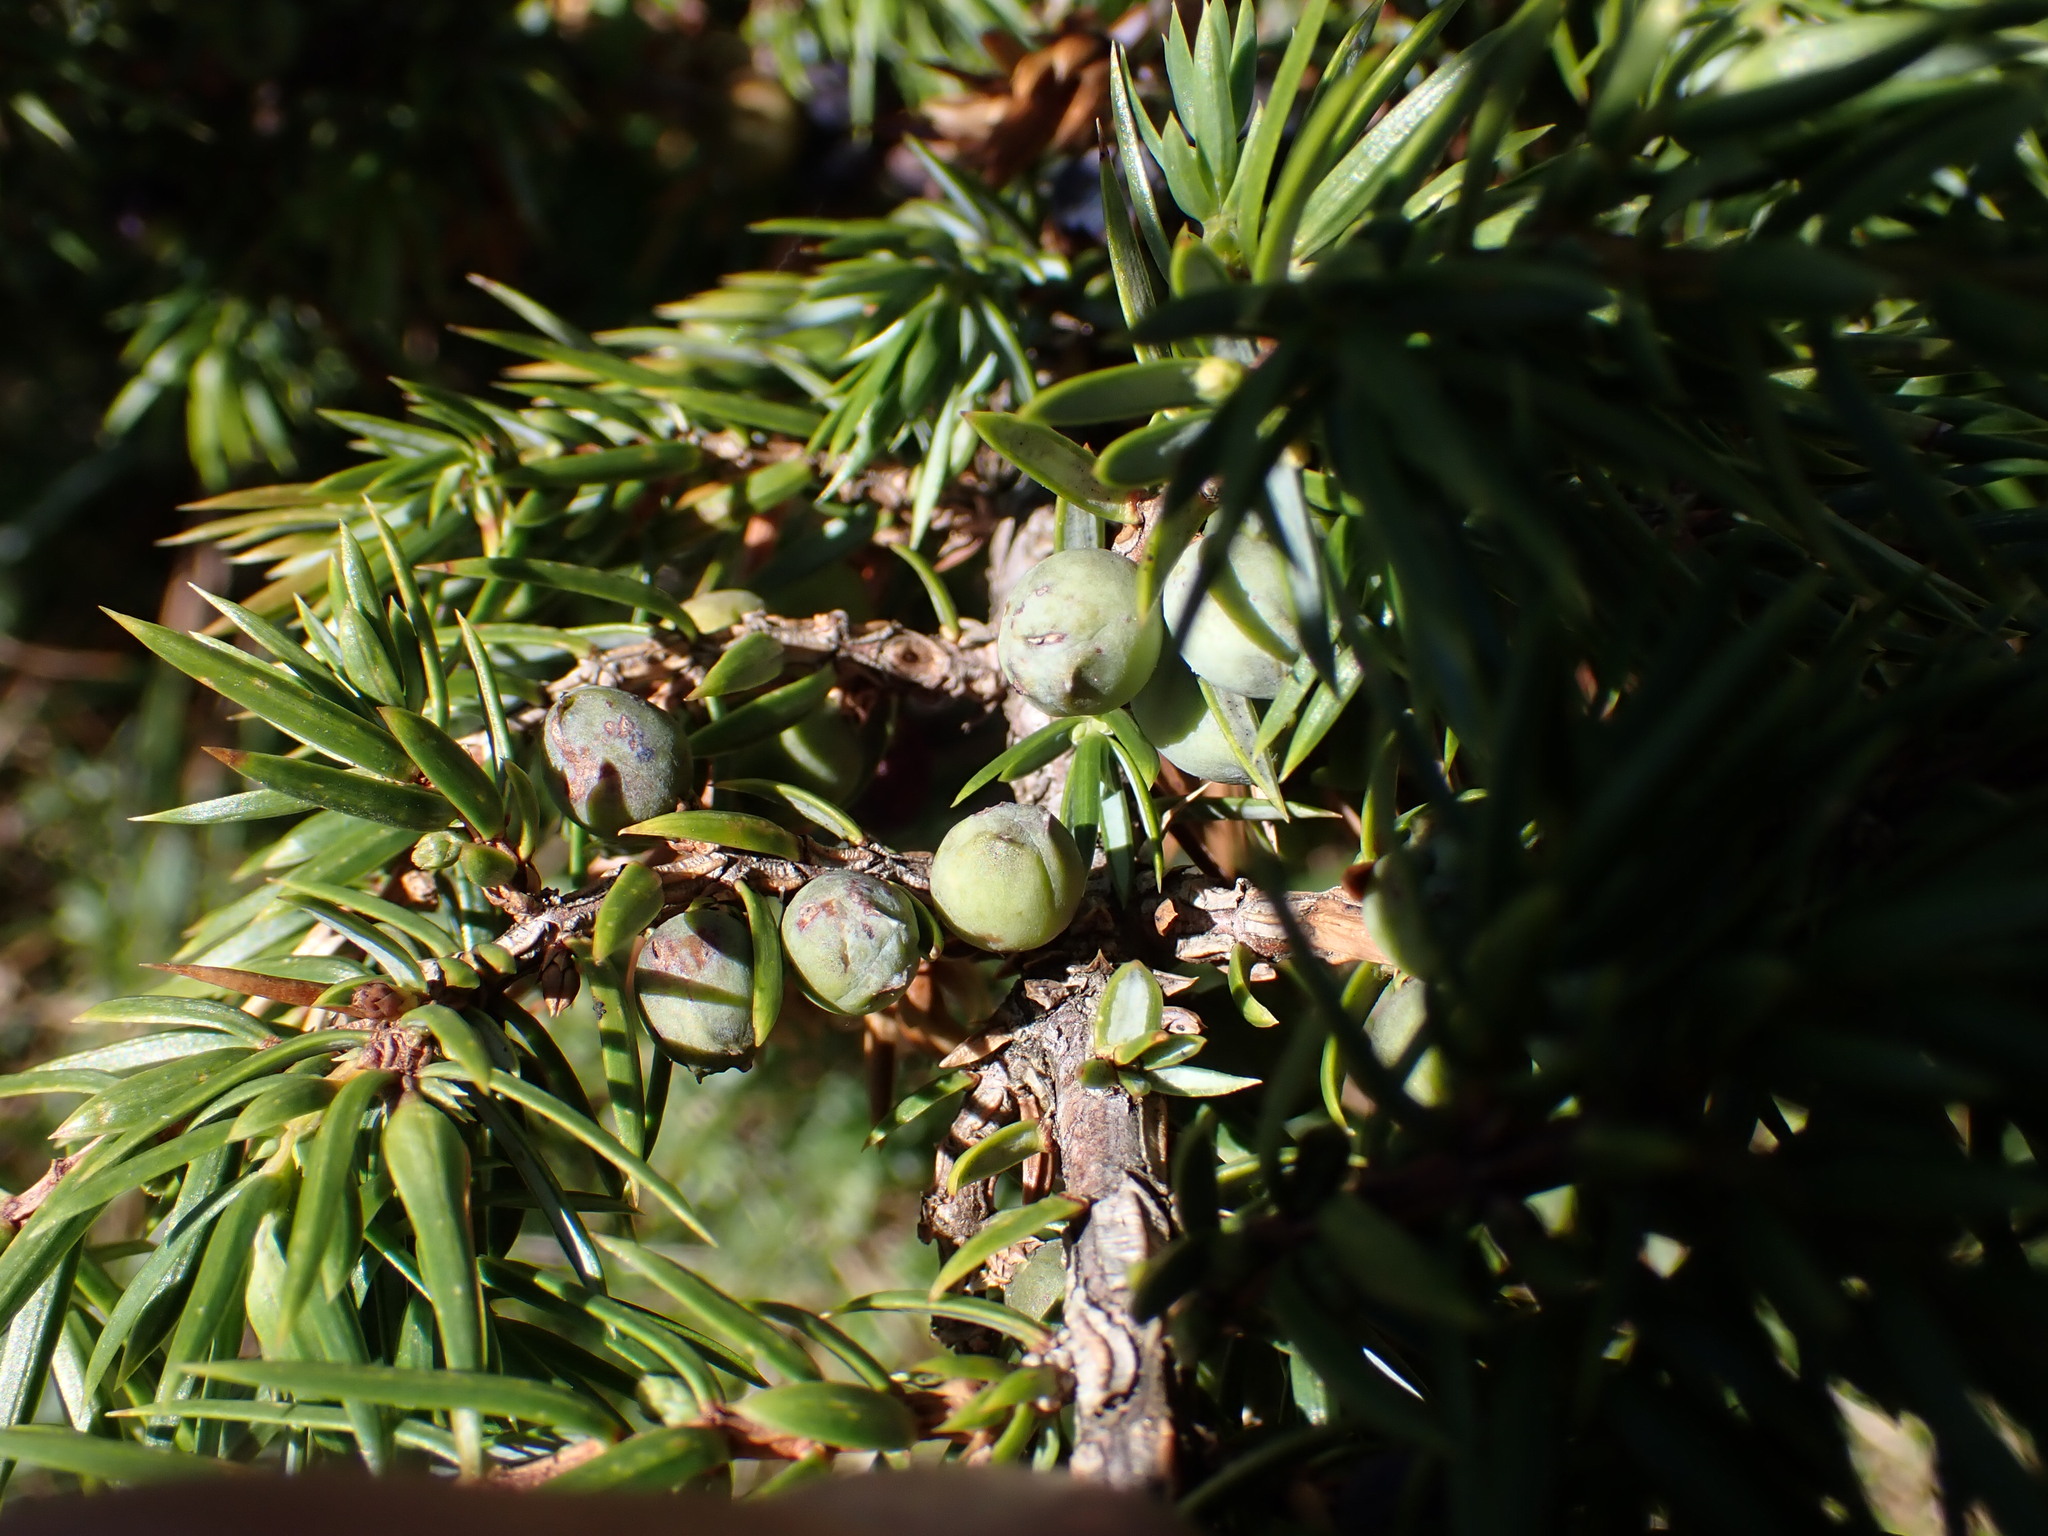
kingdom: Plantae
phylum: Tracheophyta
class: Pinopsida
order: Pinales
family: Cupressaceae
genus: Juniperus
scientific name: Juniperus communis
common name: Common juniper
